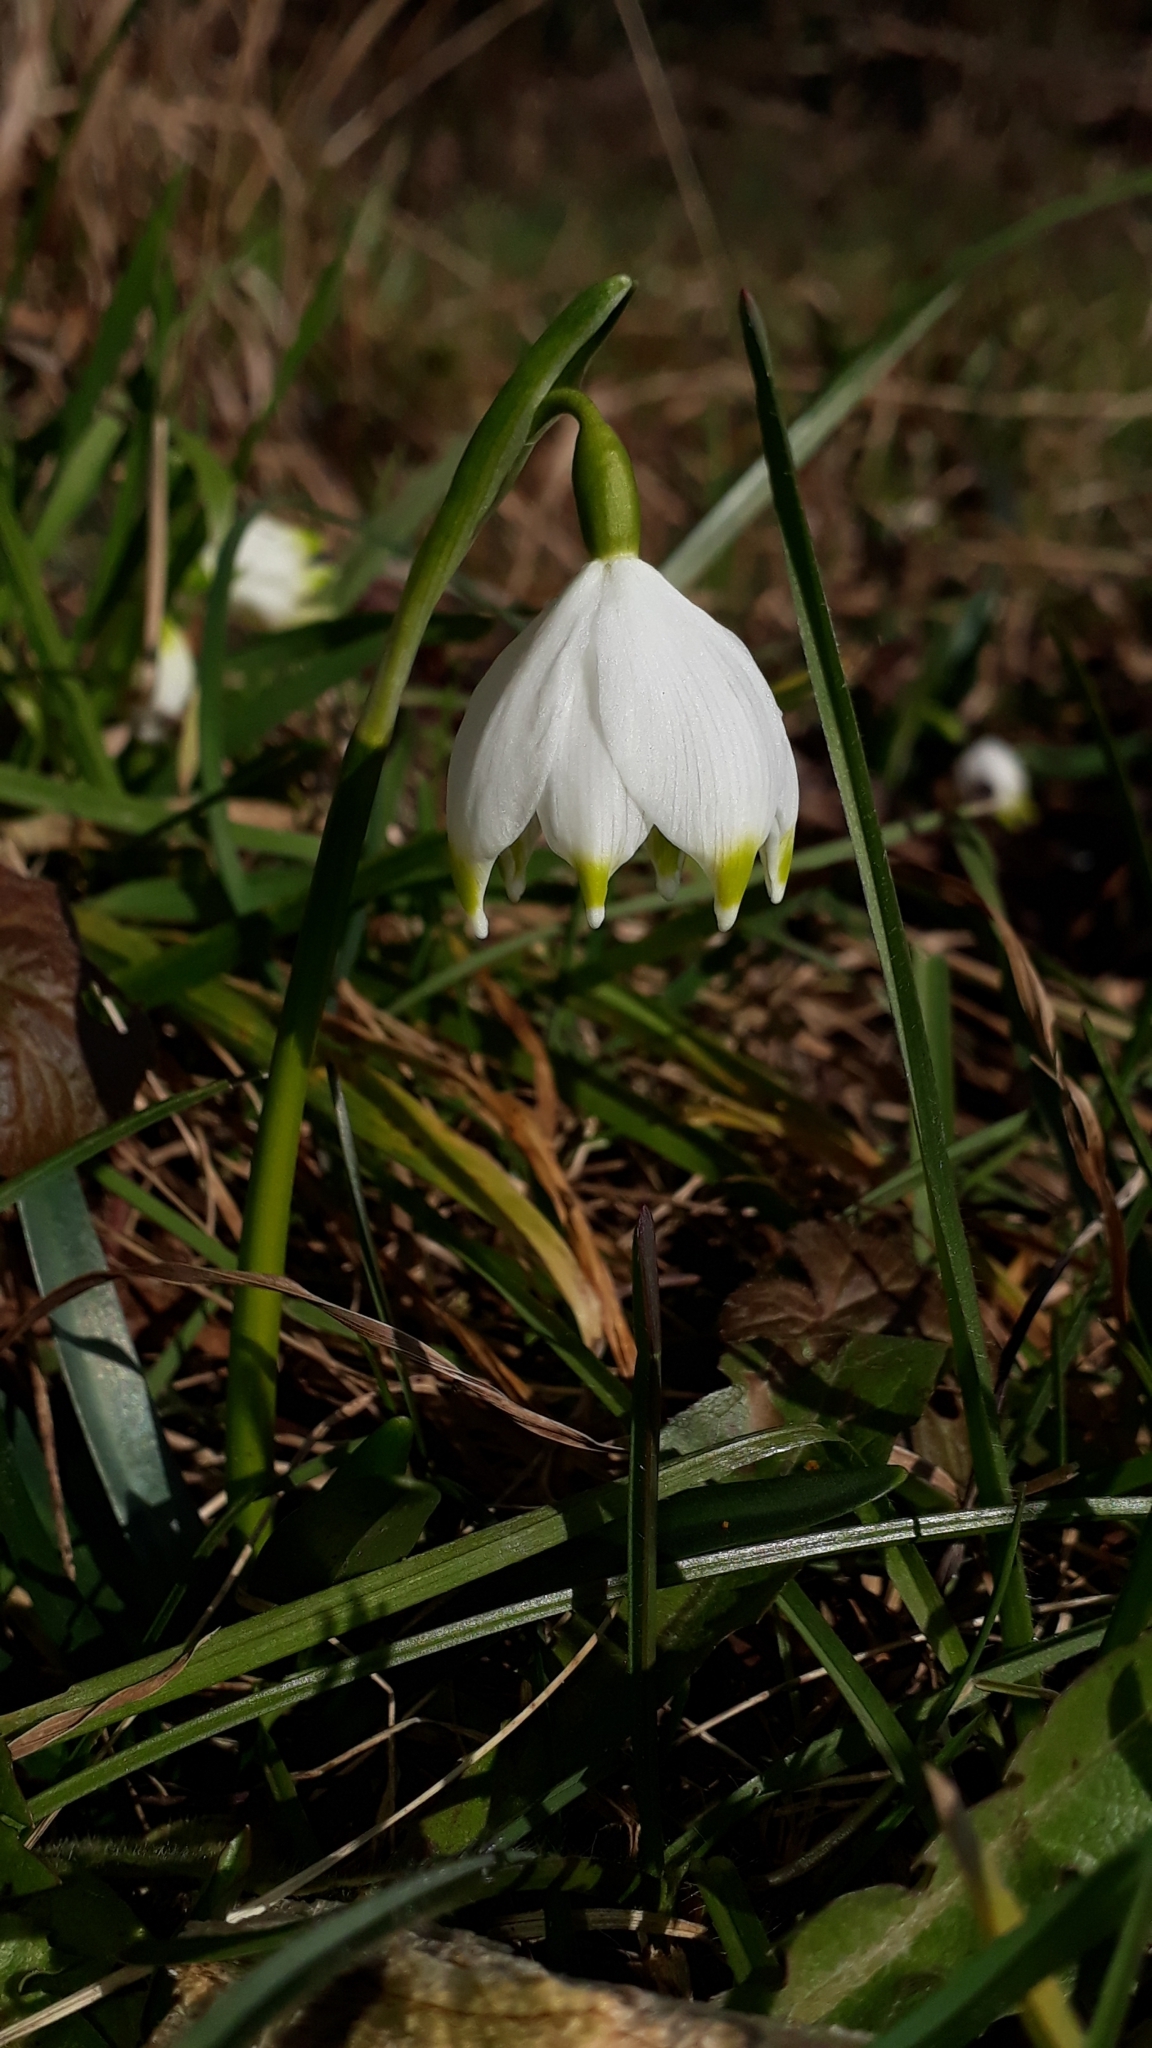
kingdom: Plantae
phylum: Tracheophyta
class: Liliopsida
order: Asparagales
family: Amaryllidaceae
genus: Leucojum
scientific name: Leucojum vernum
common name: Spring snowflake
